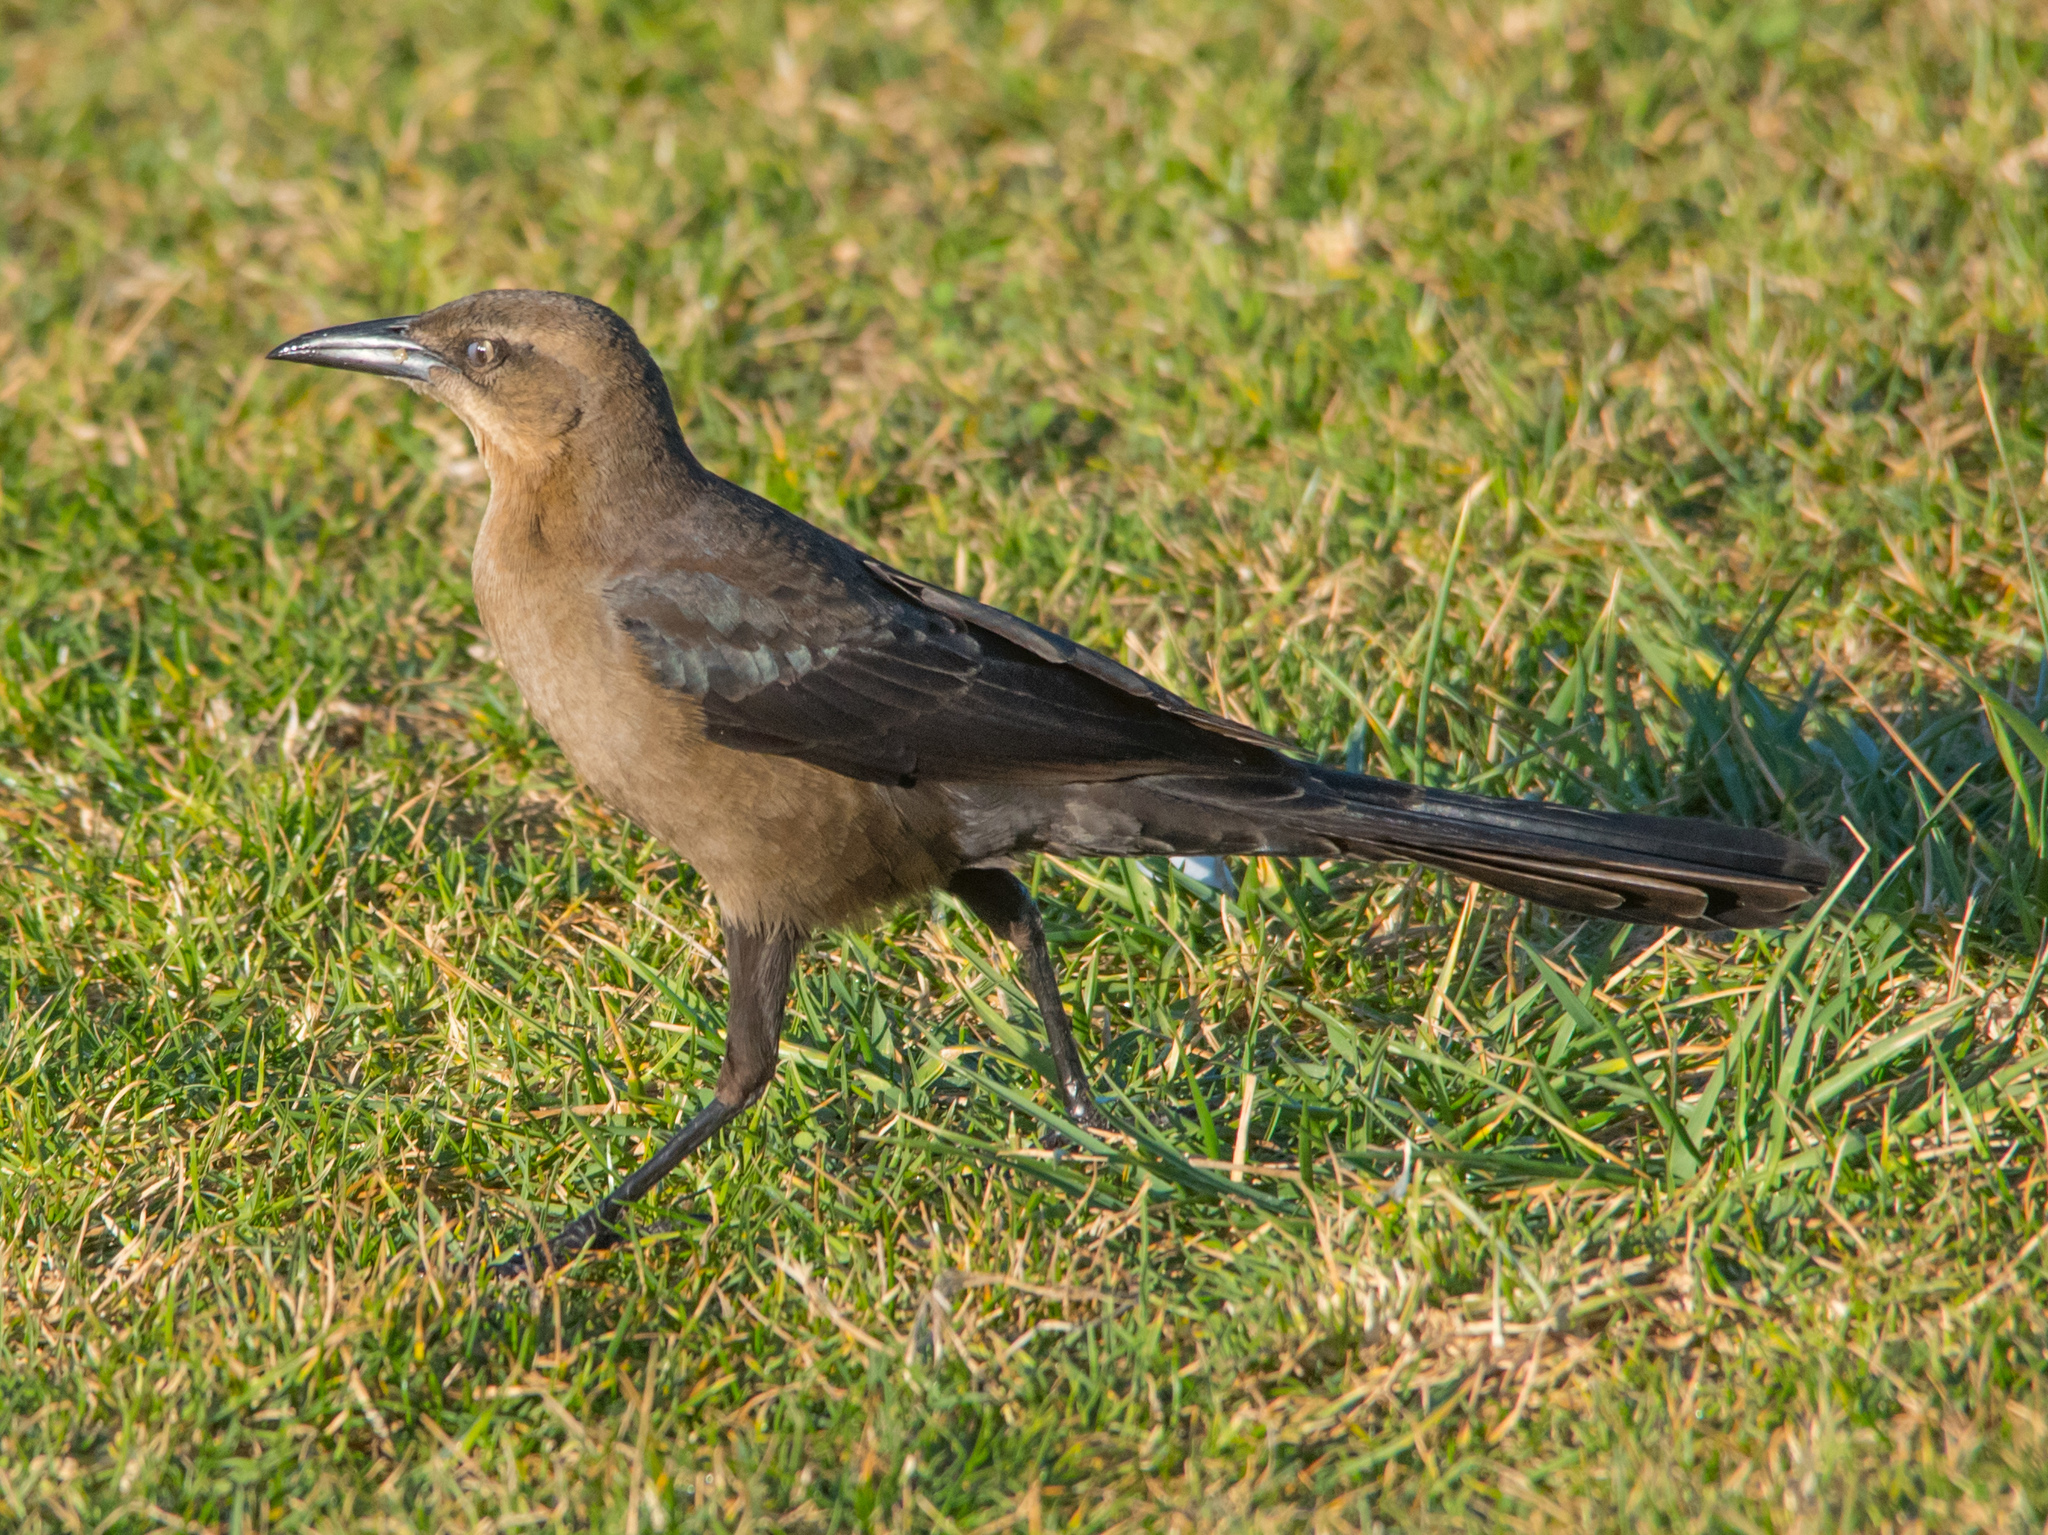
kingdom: Animalia
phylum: Chordata
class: Aves
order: Passeriformes
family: Icteridae
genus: Quiscalus
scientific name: Quiscalus mexicanus
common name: Great-tailed grackle
